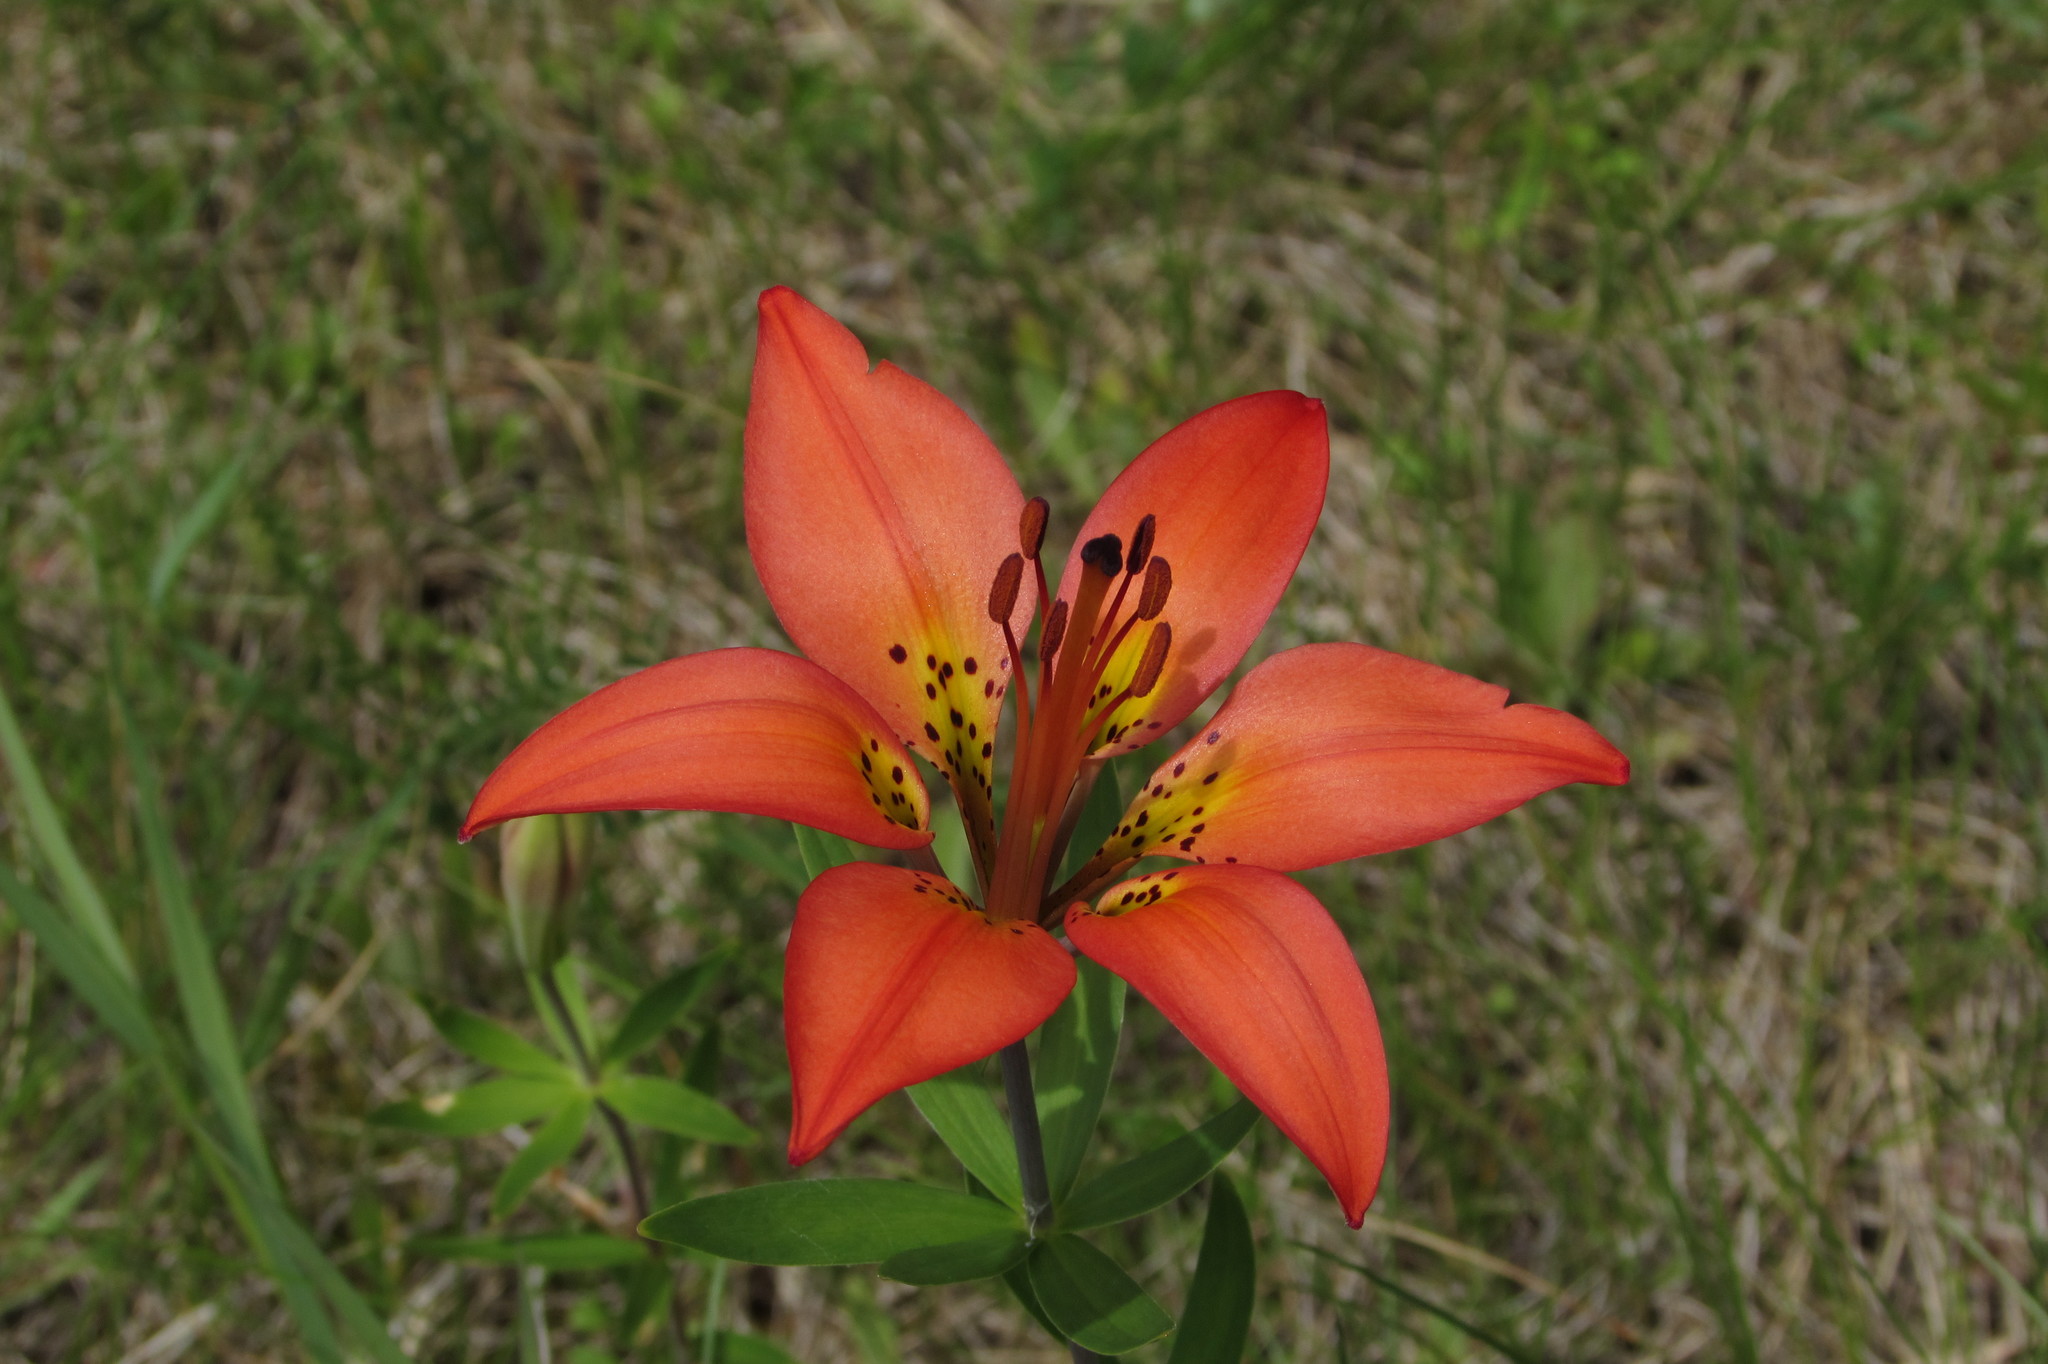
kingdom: Plantae
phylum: Tracheophyta
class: Liliopsida
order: Liliales
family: Liliaceae
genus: Lilium
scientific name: Lilium philadelphicum
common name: Red lily
